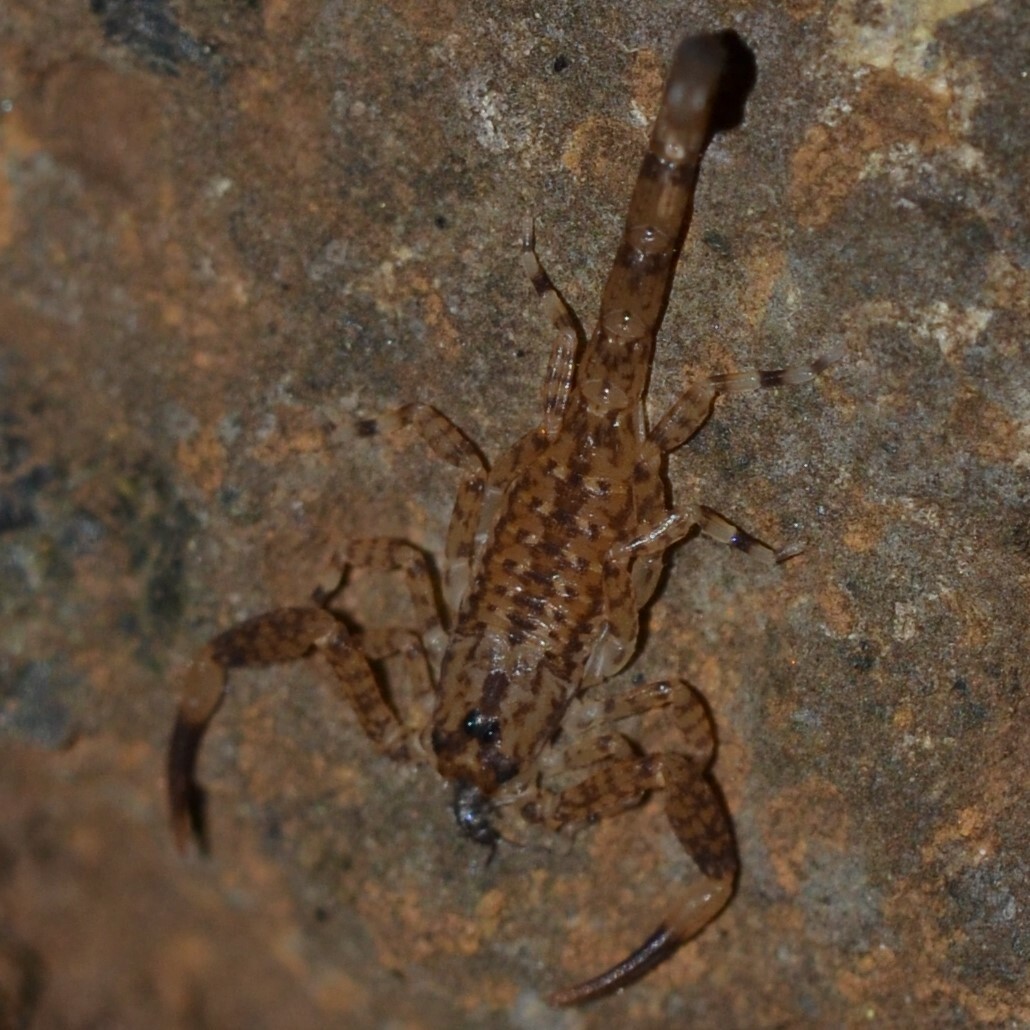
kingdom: Animalia
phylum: Arthropoda
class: Arachnida
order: Scorpiones
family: Buthidae
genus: Isometrus
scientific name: Isometrus maculatus
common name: Scorpions
